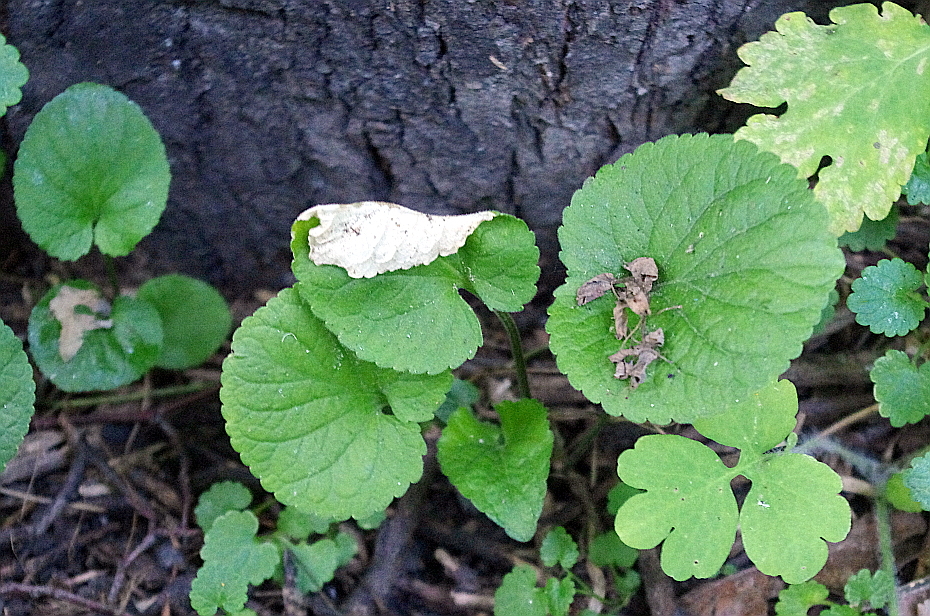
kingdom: Plantae
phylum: Tracheophyta
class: Magnoliopsida
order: Malpighiales
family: Violaceae
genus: Viola
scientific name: Viola odorata
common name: Sweet violet
